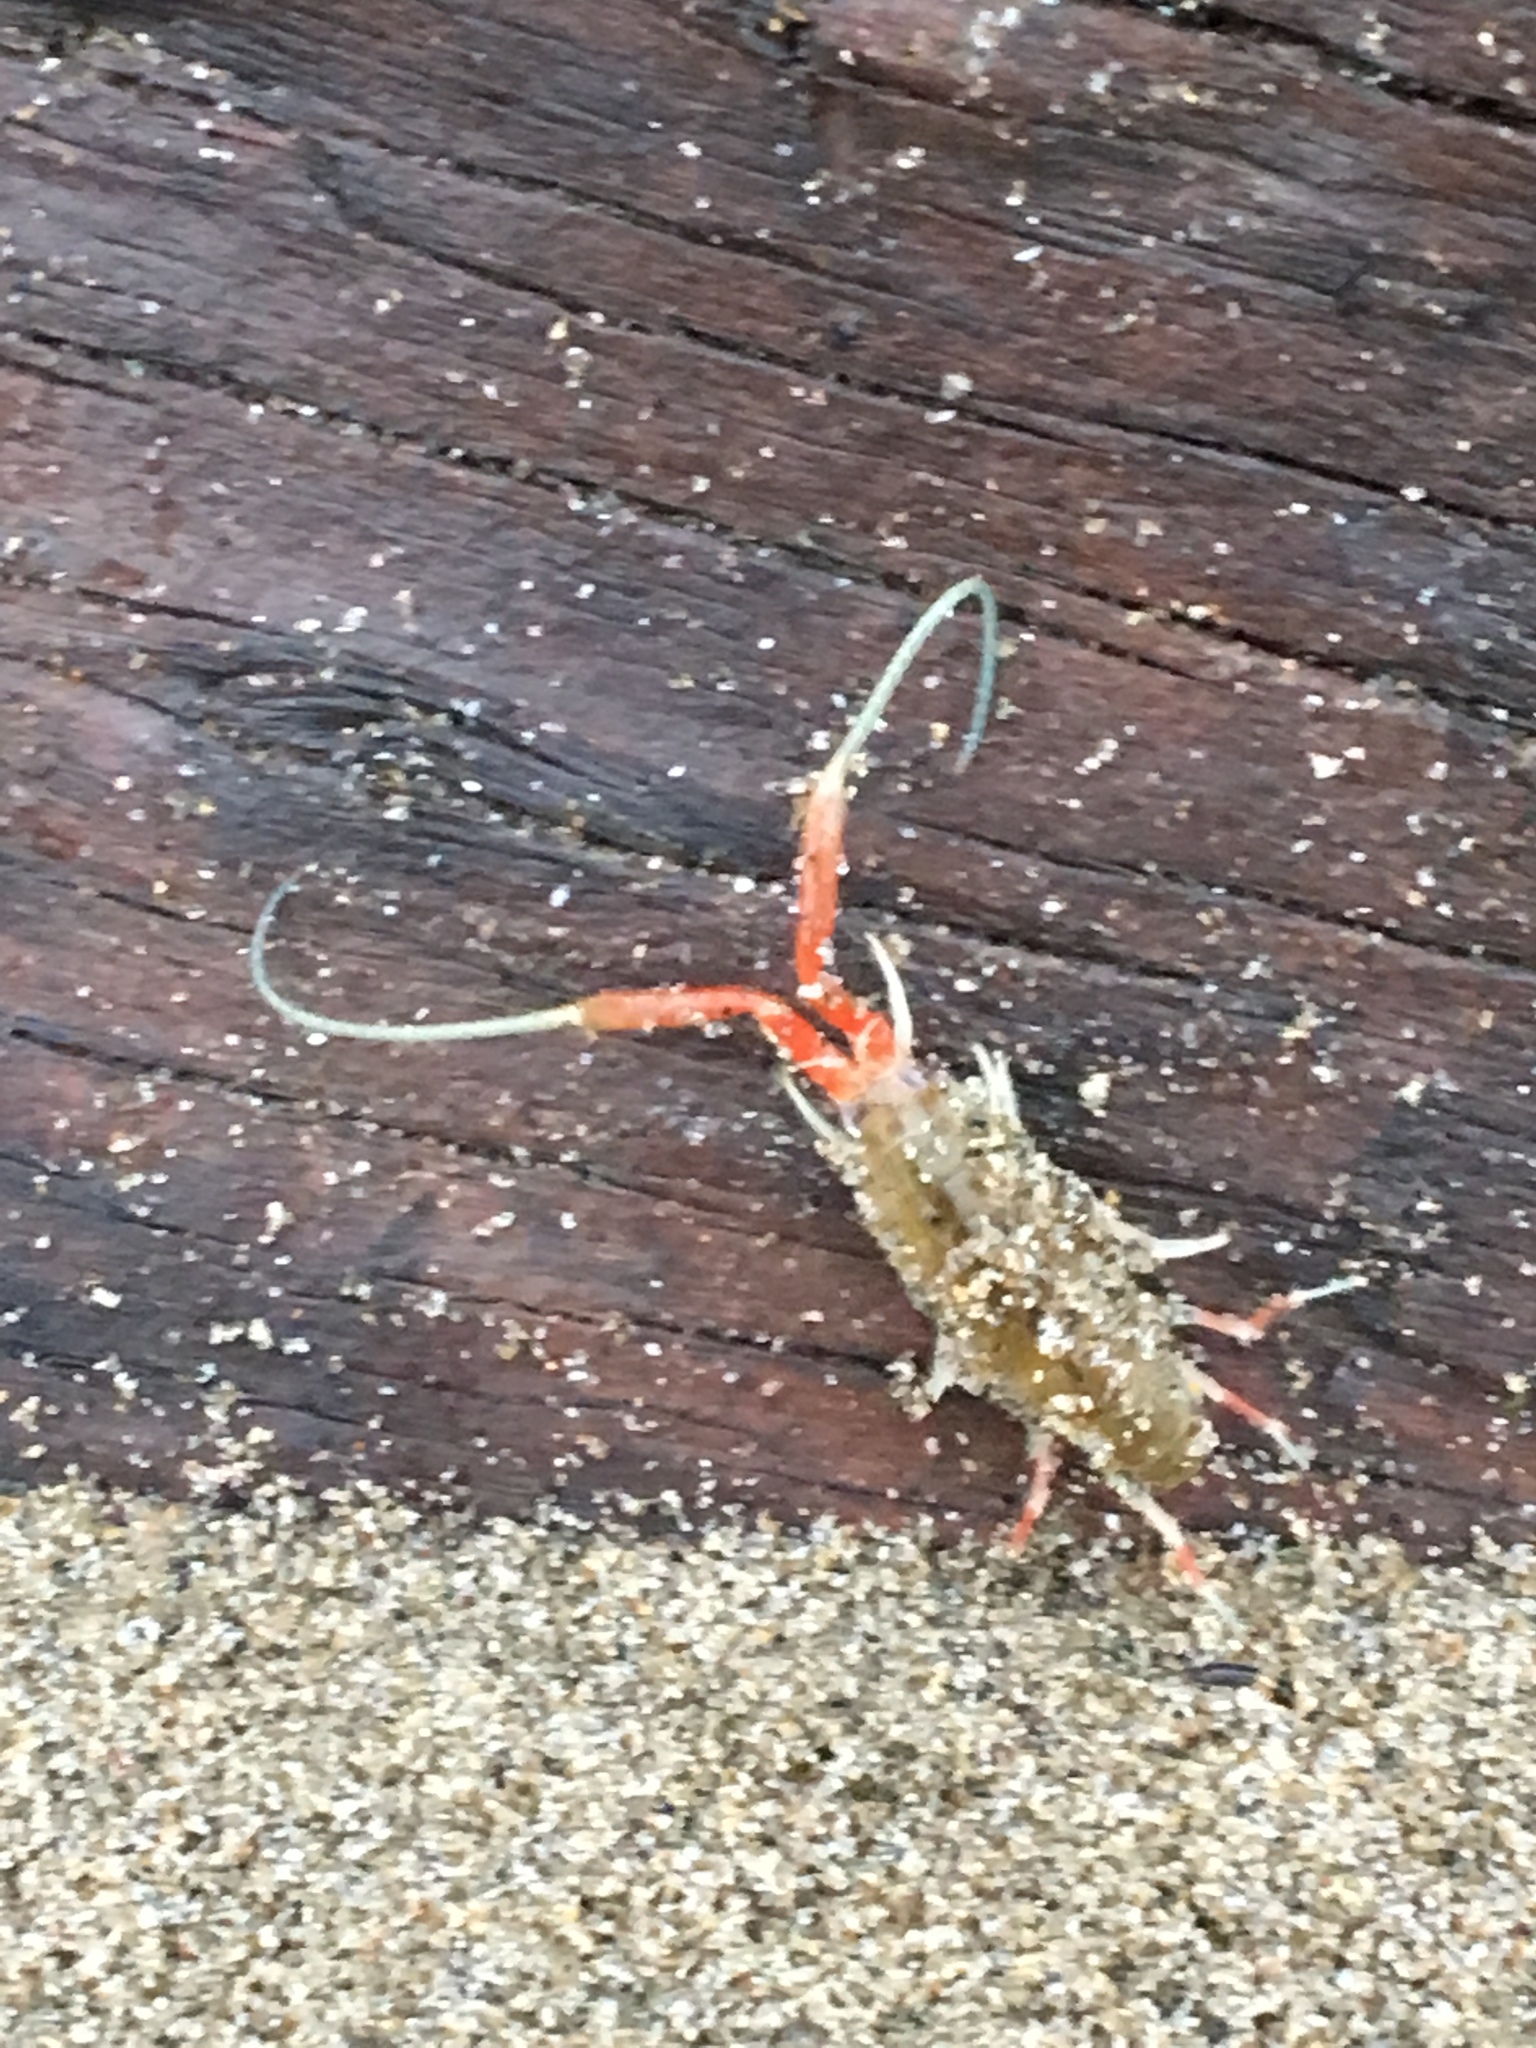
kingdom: Animalia
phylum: Arthropoda
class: Malacostraca
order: Amphipoda
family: Talitridae
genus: Megalorchestia
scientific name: Megalorchestia californiana
